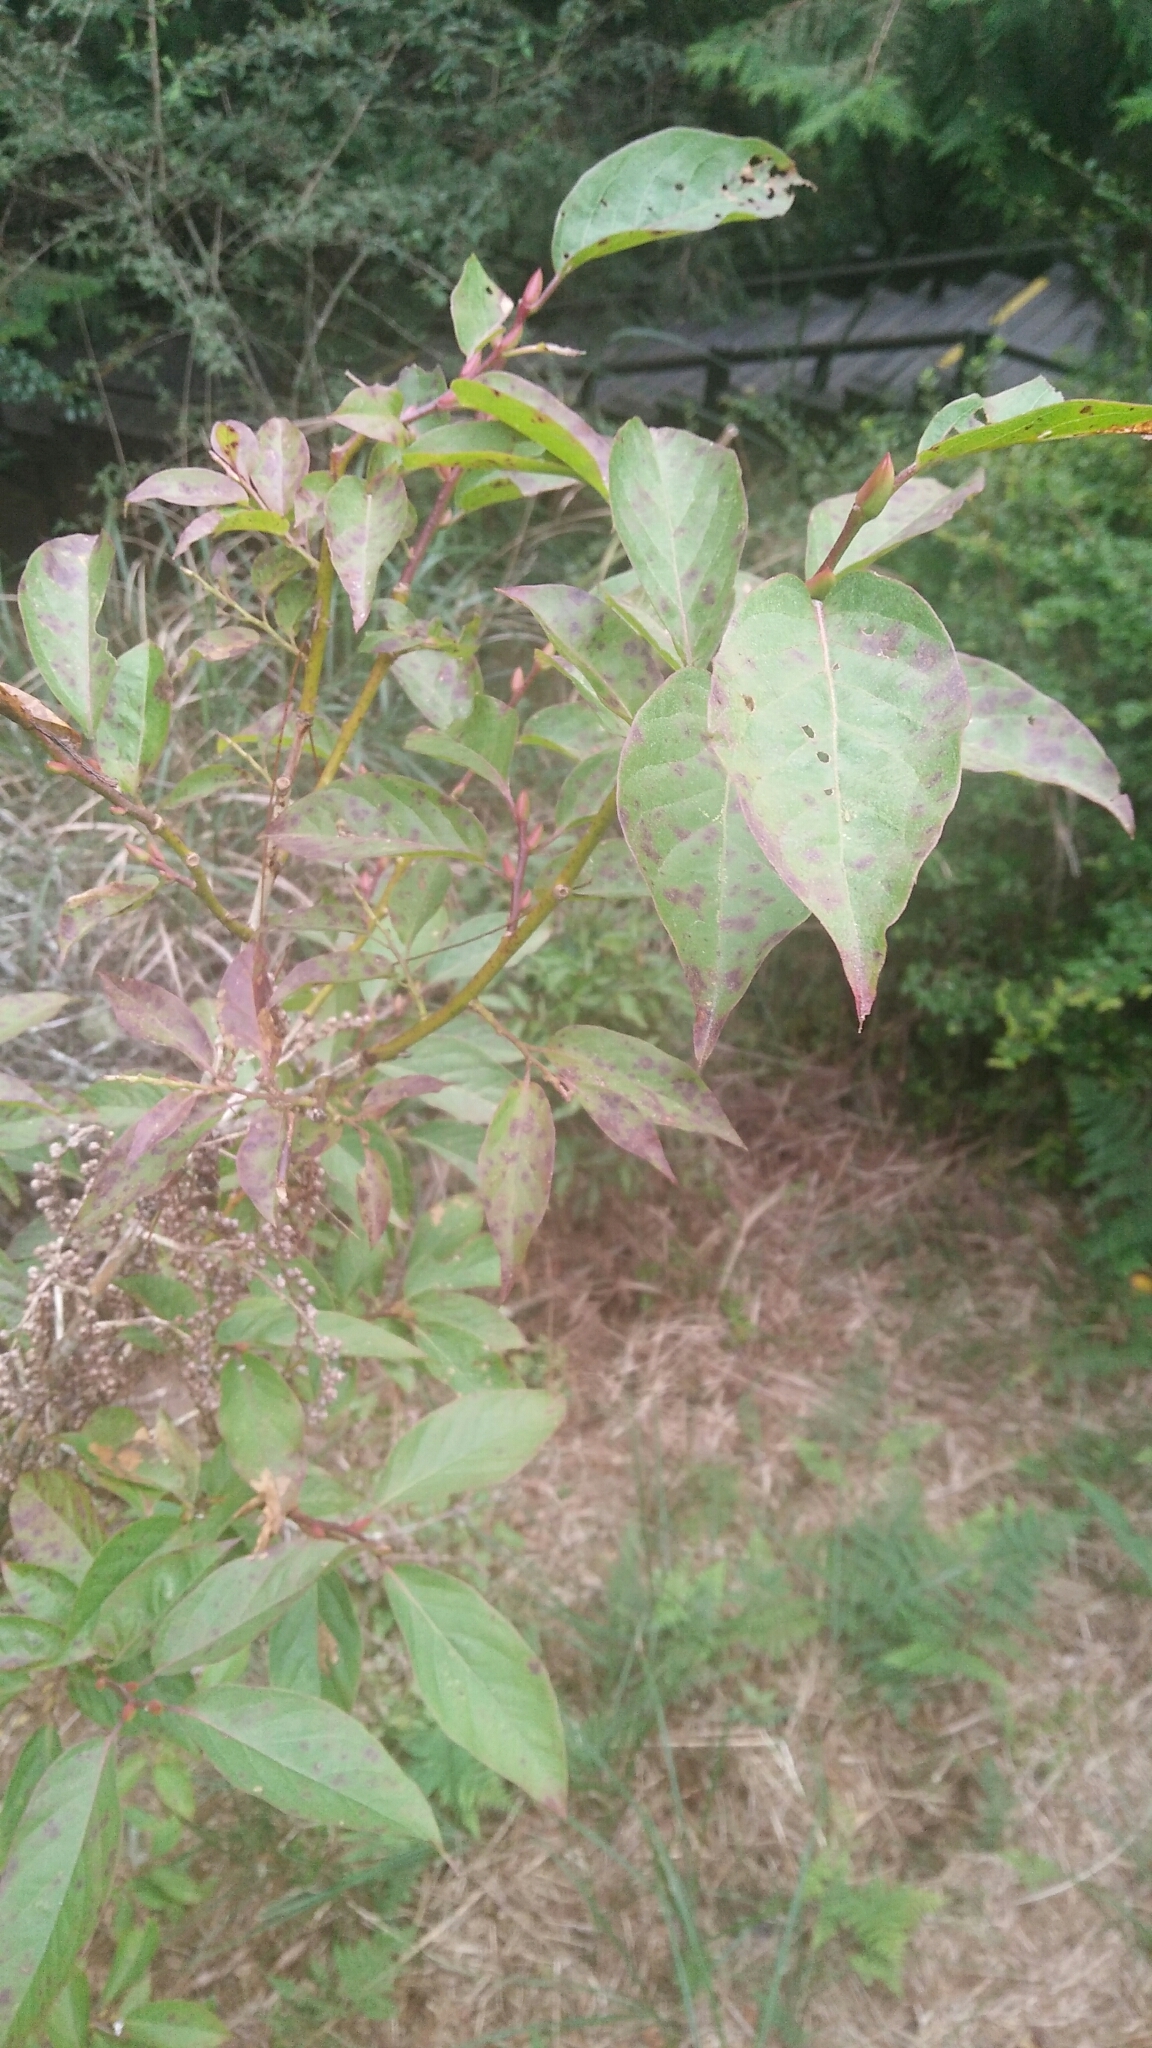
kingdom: Plantae
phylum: Tracheophyta
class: Magnoliopsida
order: Ericales
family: Ericaceae
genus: Lyonia
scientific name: Lyonia ovalifolia
